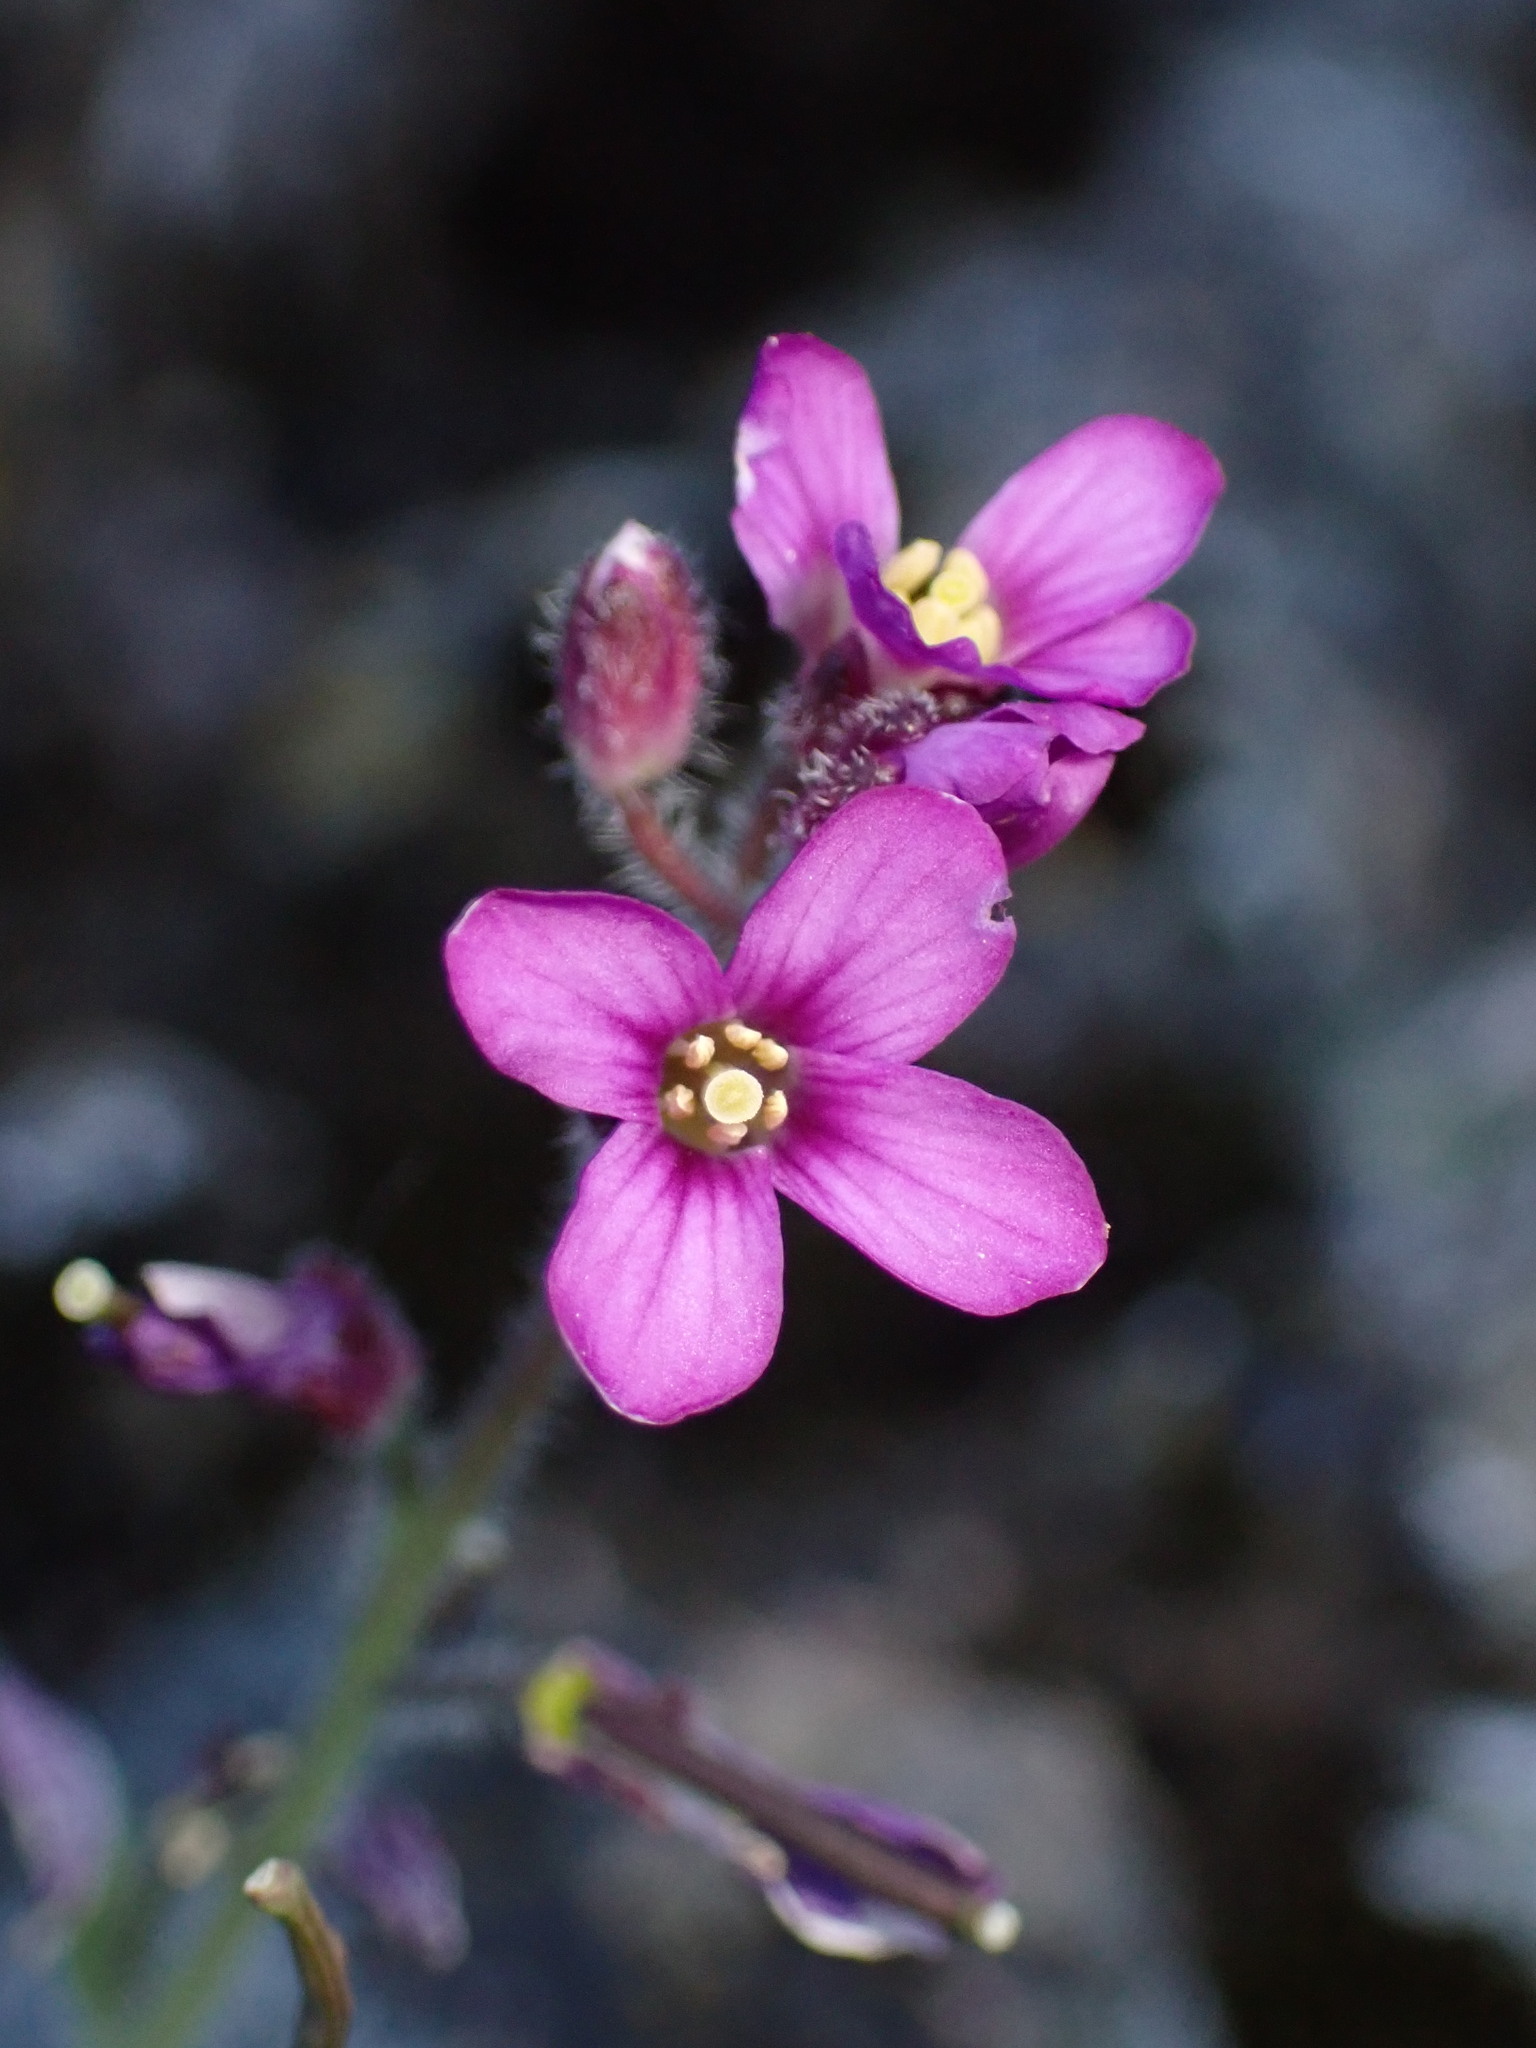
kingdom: Plantae
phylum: Tracheophyta
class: Magnoliopsida
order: Brassicales
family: Brassicaceae
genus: Boechera
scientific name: Boechera breweri
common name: Brewer's rockcress
